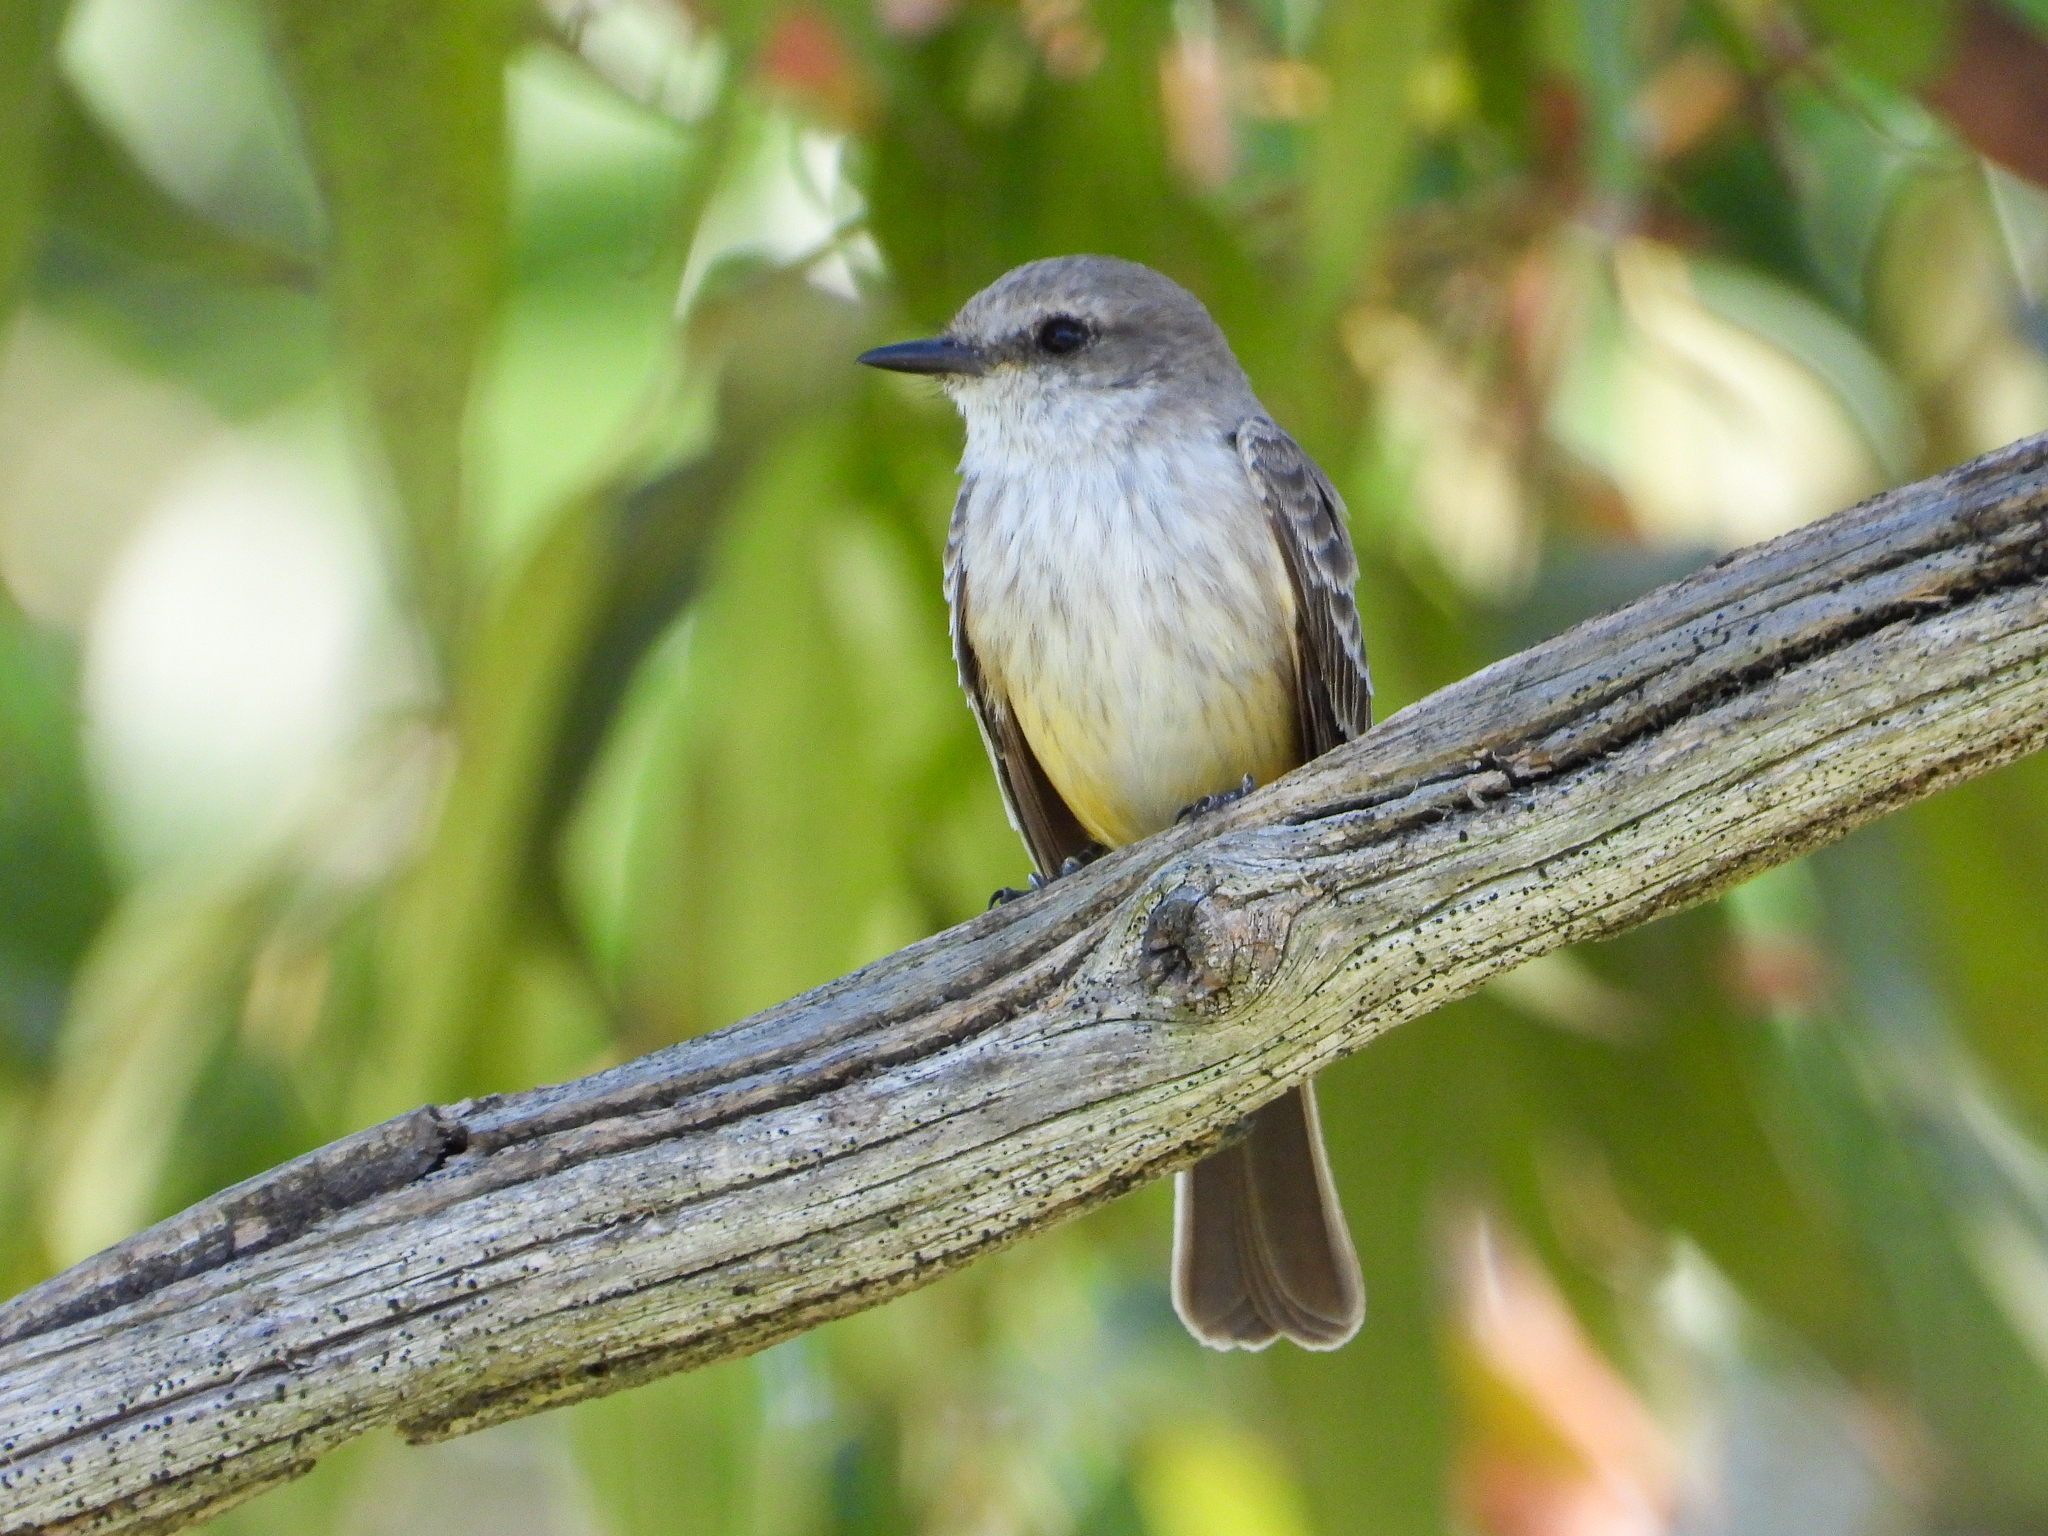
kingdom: Animalia
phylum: Chordata
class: Aves
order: Passeriformes
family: Tyrannidae
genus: Pyrocephalus
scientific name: Pyrocephalus rubinus
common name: Vermilion flycatcher
